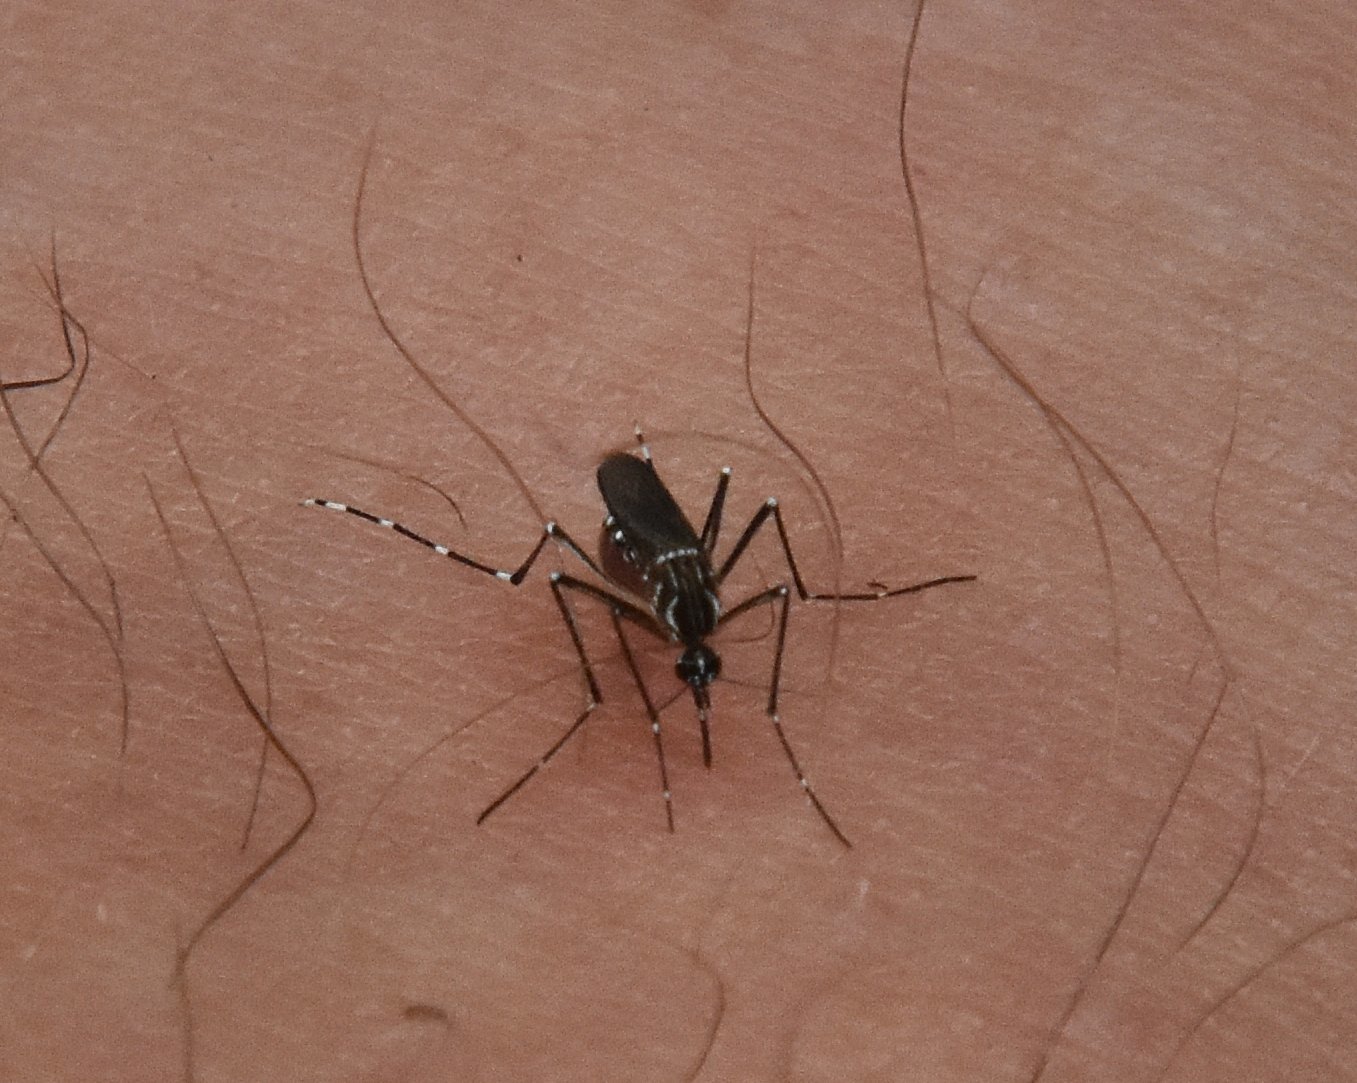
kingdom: Animalia
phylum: Arthropoda
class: Insecta
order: Diptera
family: Culicidae
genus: Aedes
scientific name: Aedes aegypti
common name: Yellow fever mosquito
